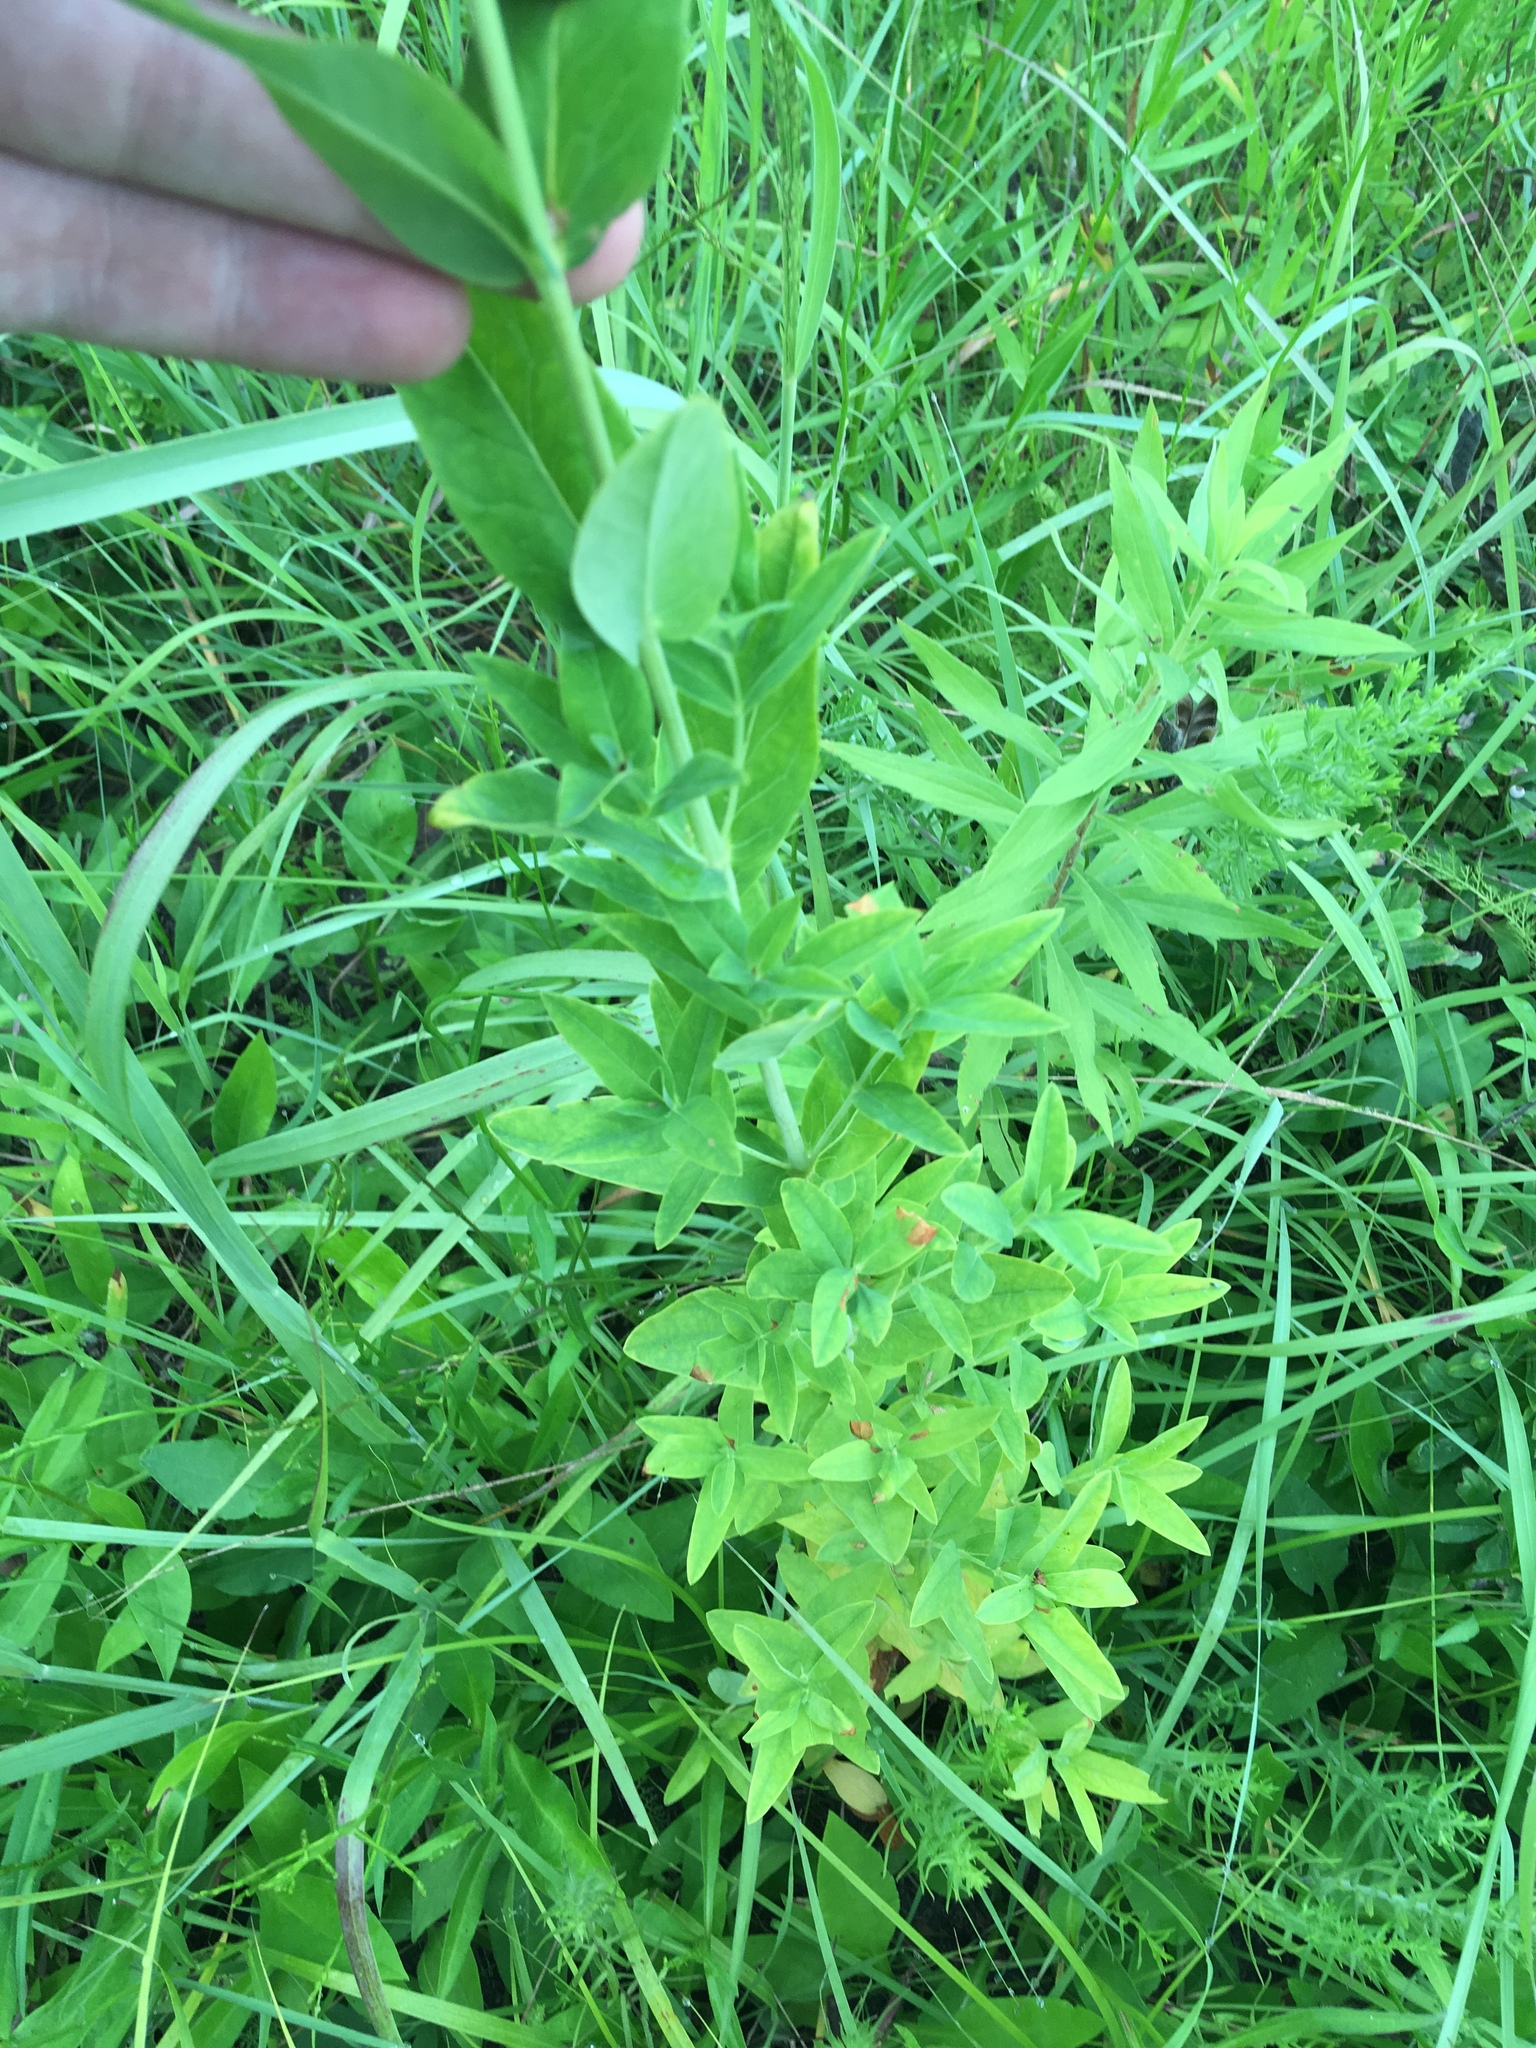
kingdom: Plantae
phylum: Tracheophyta
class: Magnoliopsida
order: Malpighiales
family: Hypericaceae
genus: Hypericum
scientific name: Hypericum ascyron
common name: Giant st. john's-wort
